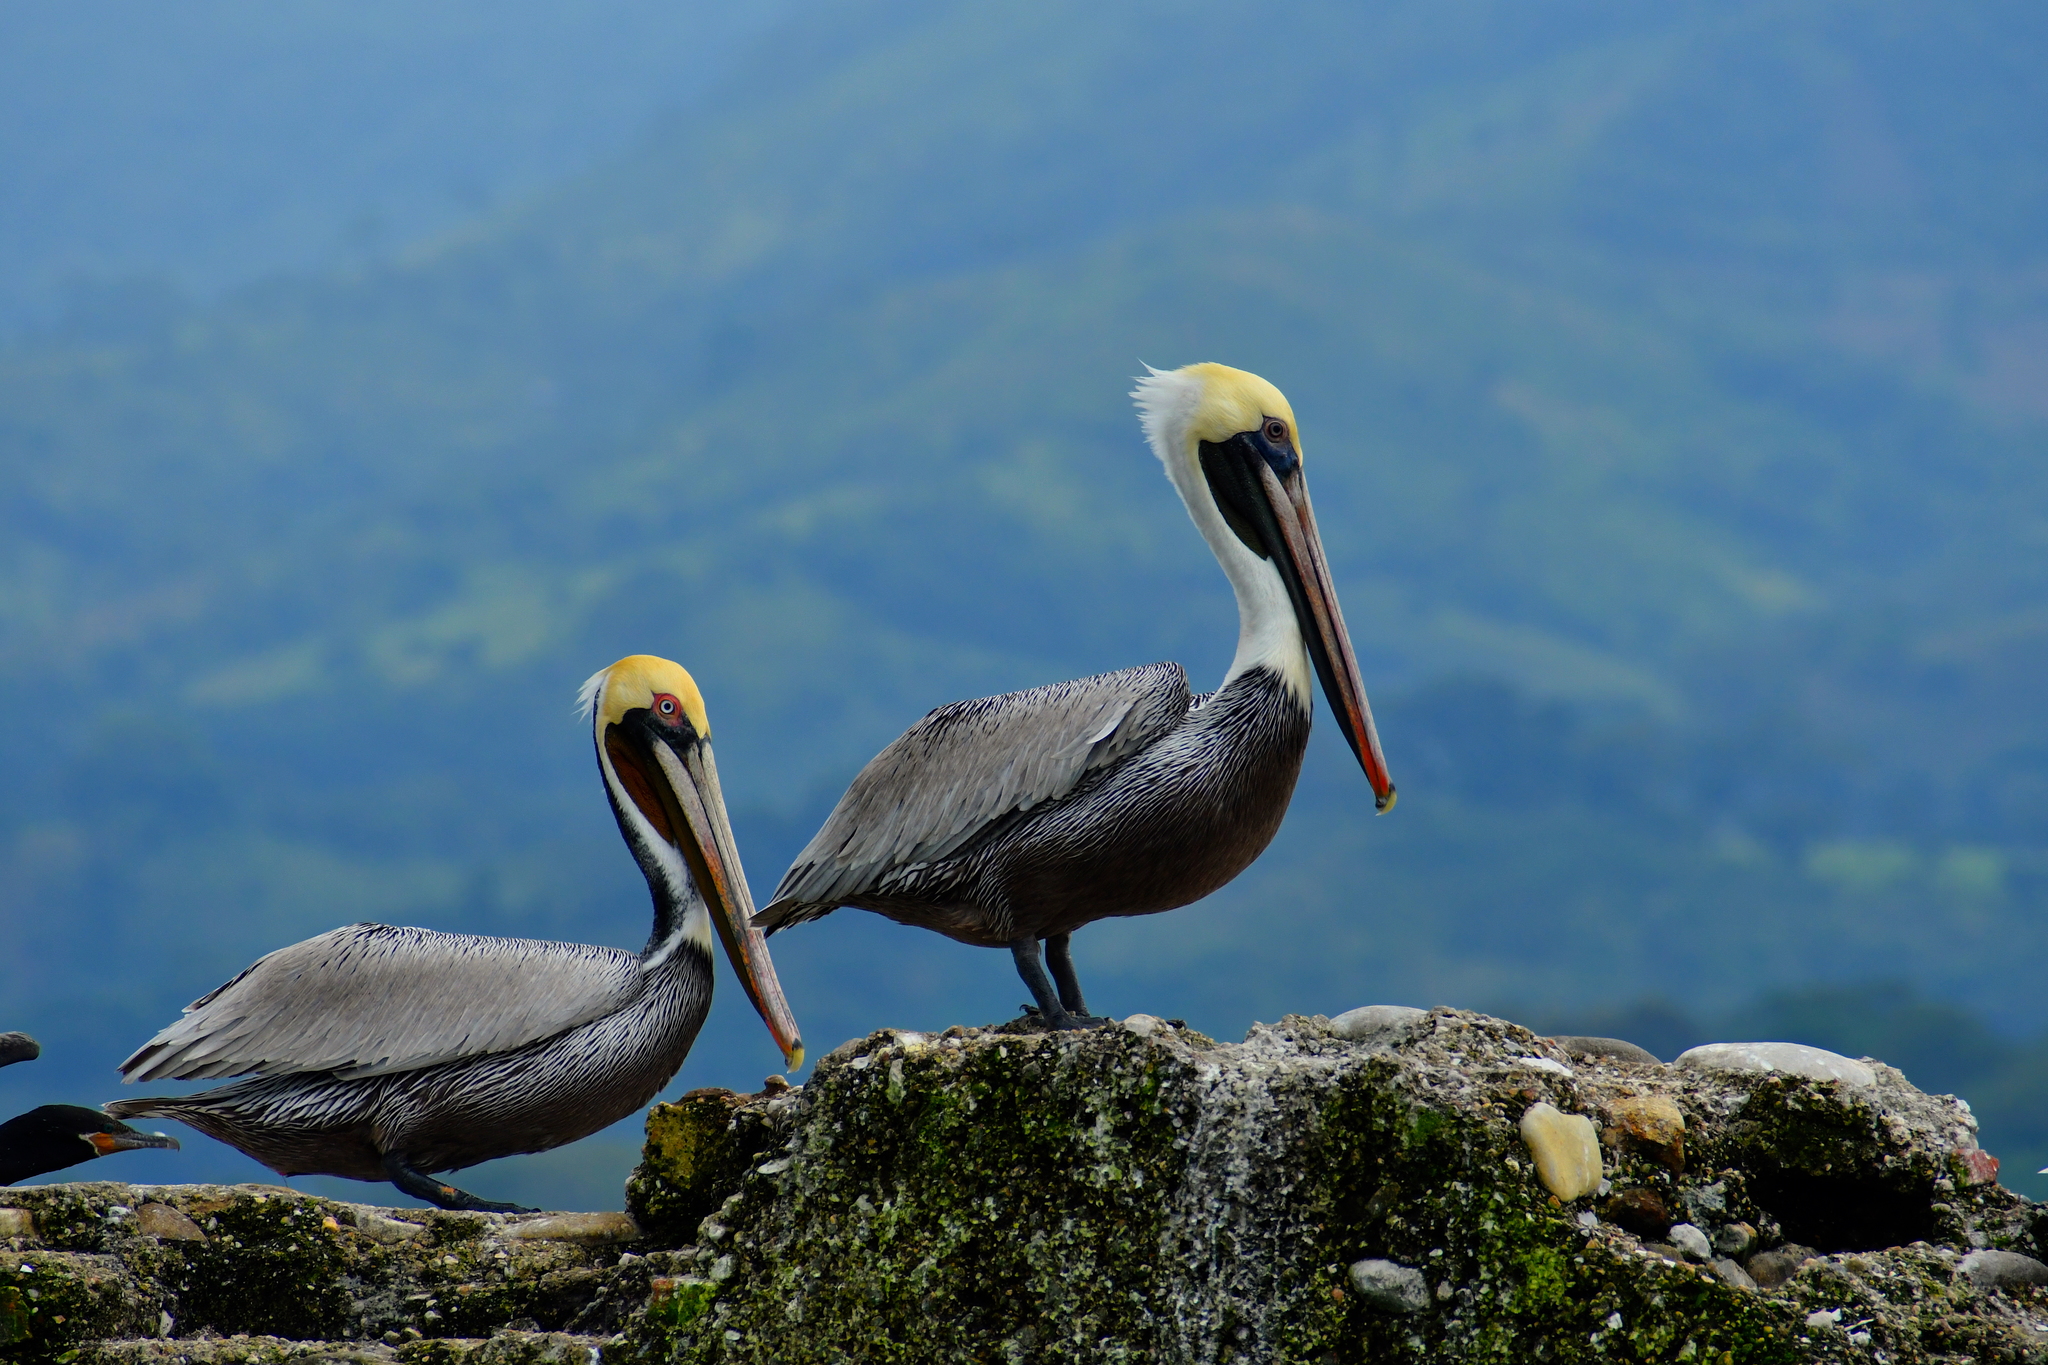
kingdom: Animalia
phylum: Chordata
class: Aves
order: Pelecaniformes
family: Pelecanidae
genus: Pelecanus
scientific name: Pelecanus occidentalis
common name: Brown pelican
